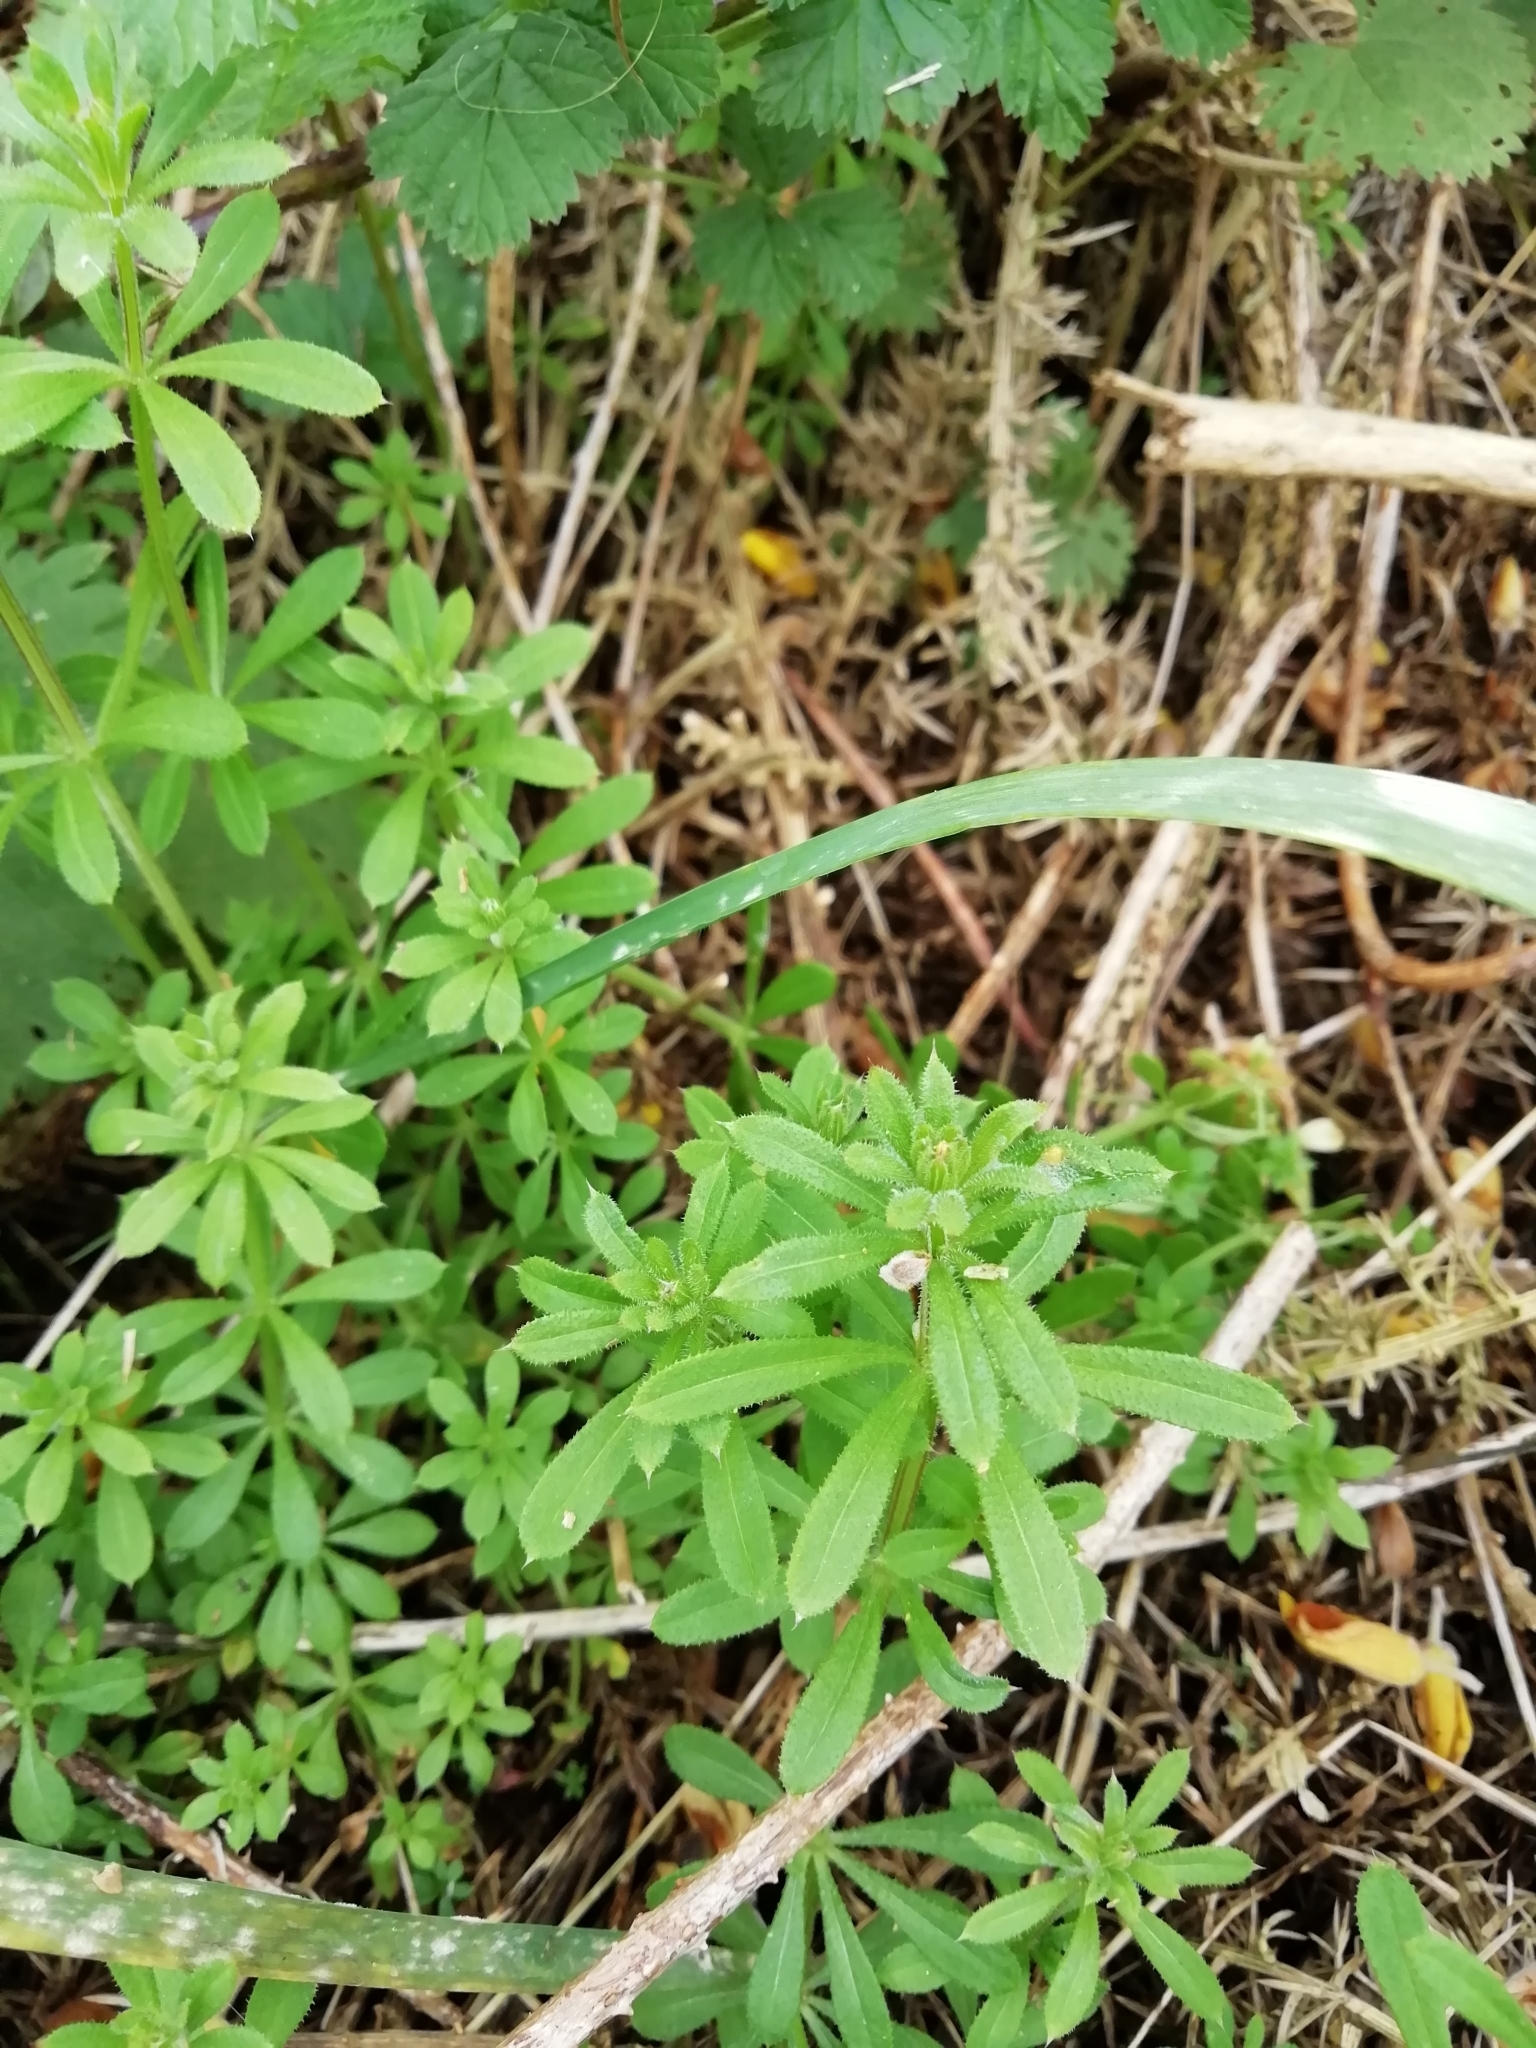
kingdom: Plantae
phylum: Tracheophyta
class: Magnoliopsida
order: Gentianales
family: Rubiaceae
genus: Galium
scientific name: Galium aparine
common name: Cleavers
